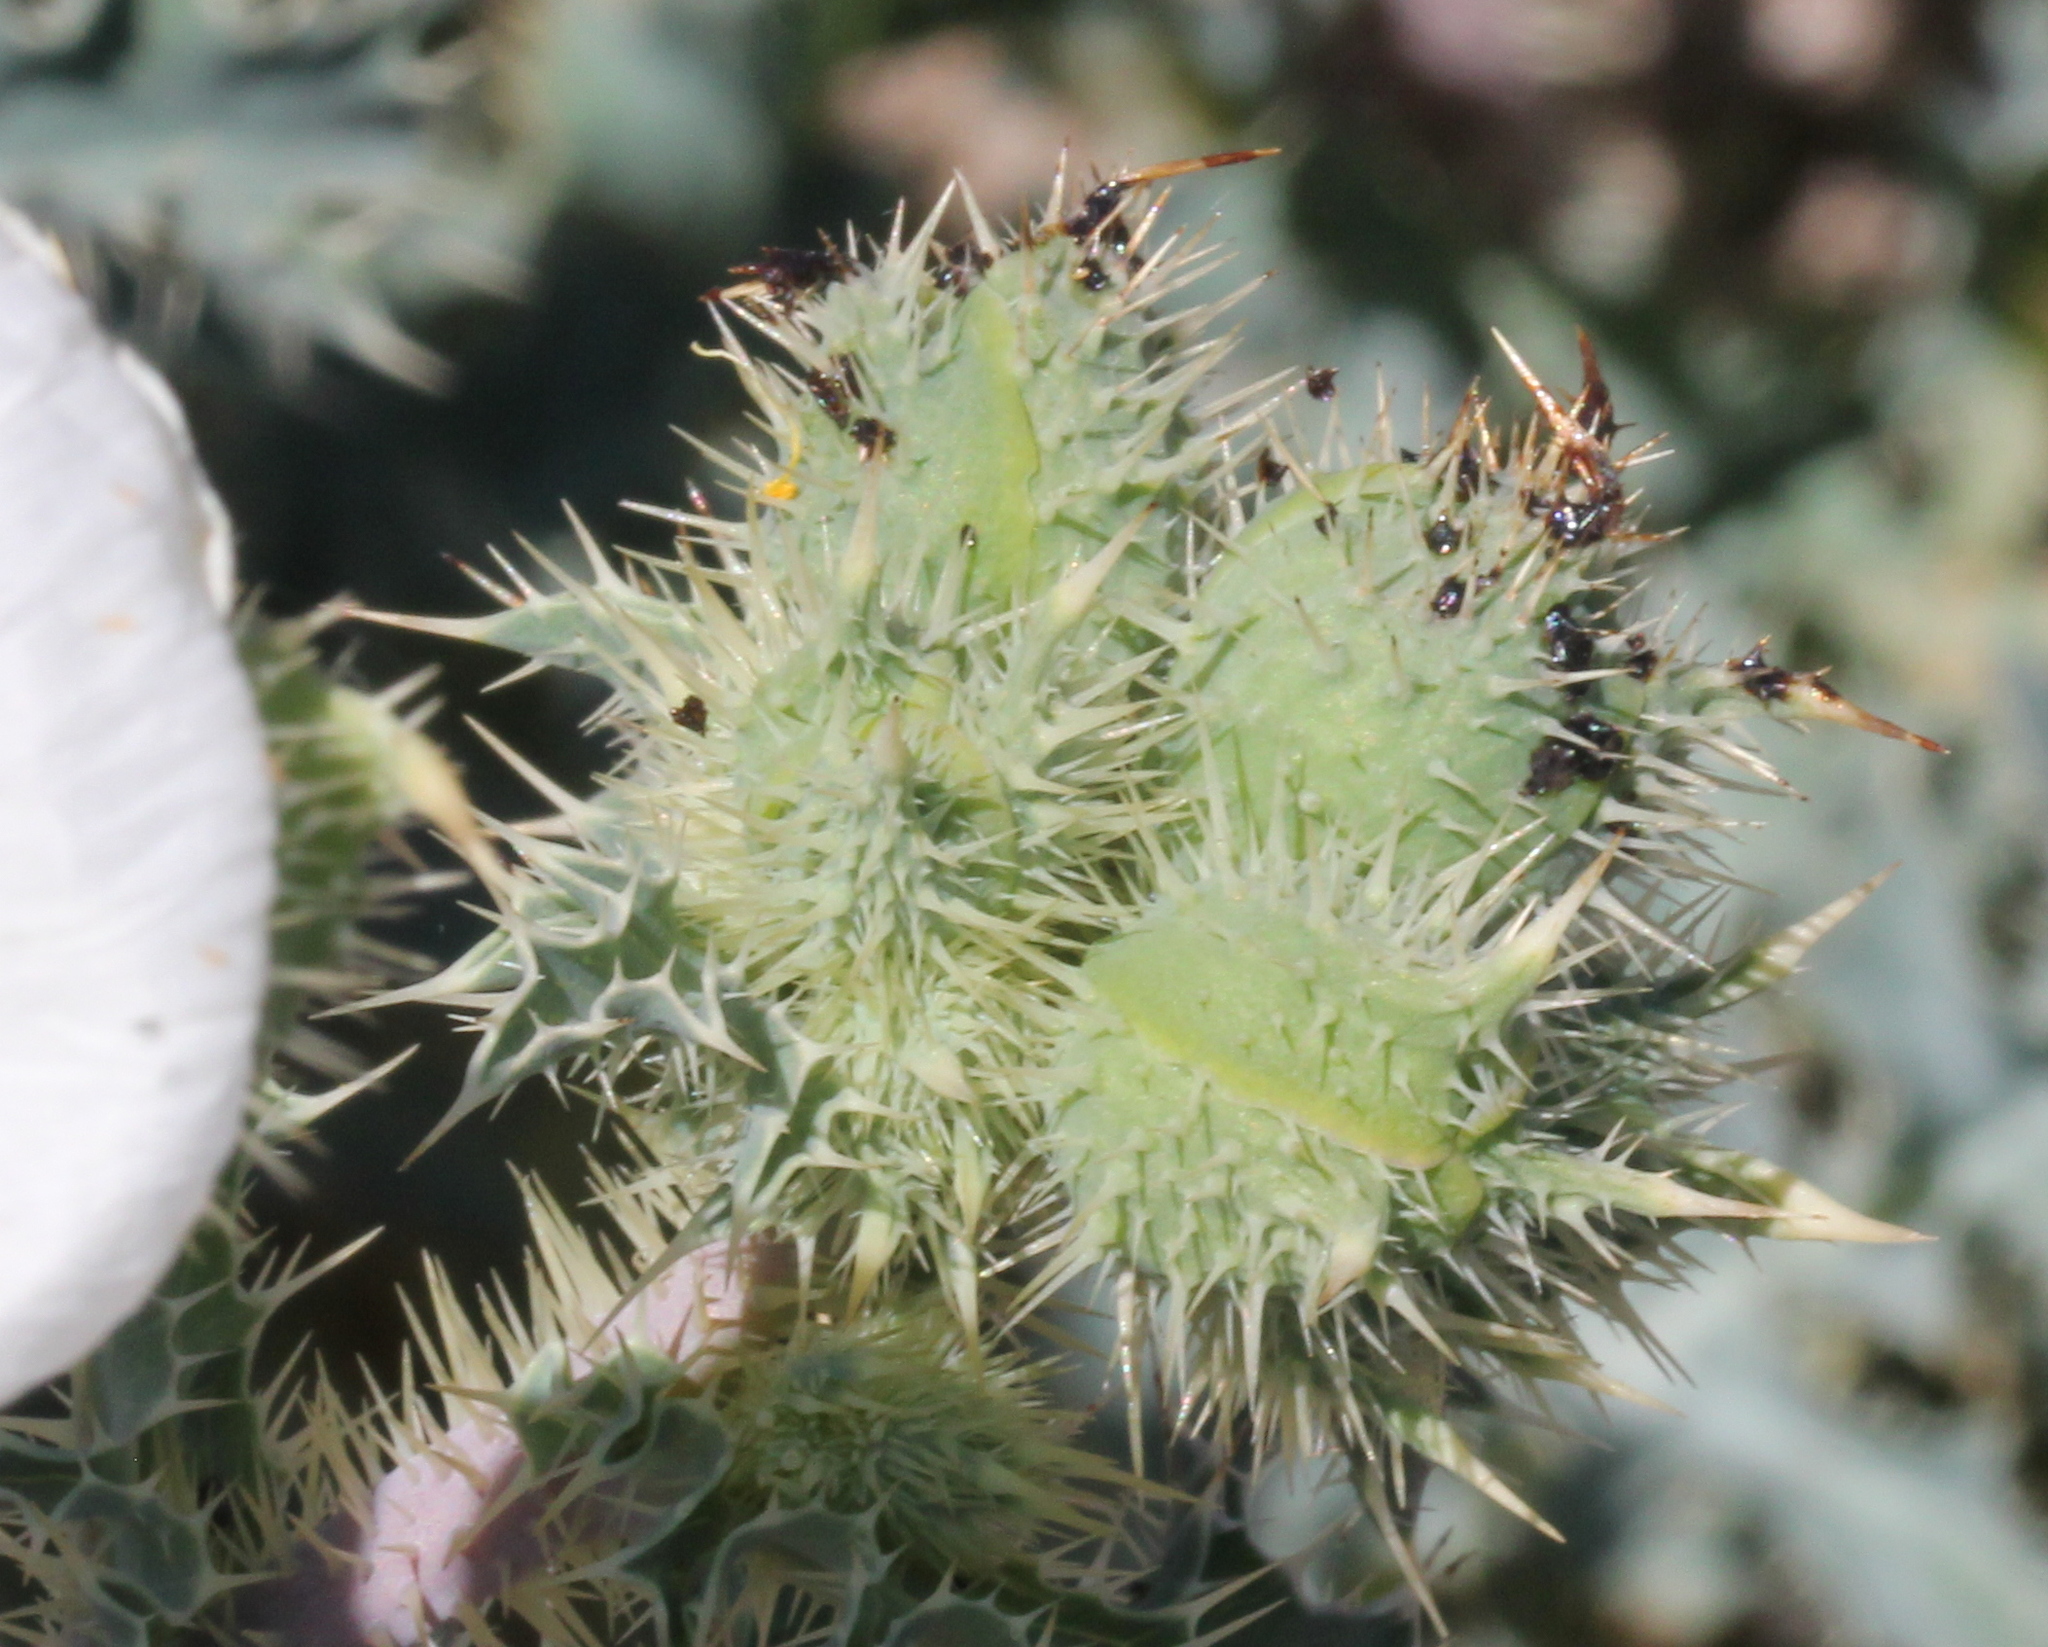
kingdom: Plantae
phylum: Tracheophyta
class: Magnoliopsida
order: Ranunculales
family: Papaveraceae
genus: Argemone
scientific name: Argemone munita
